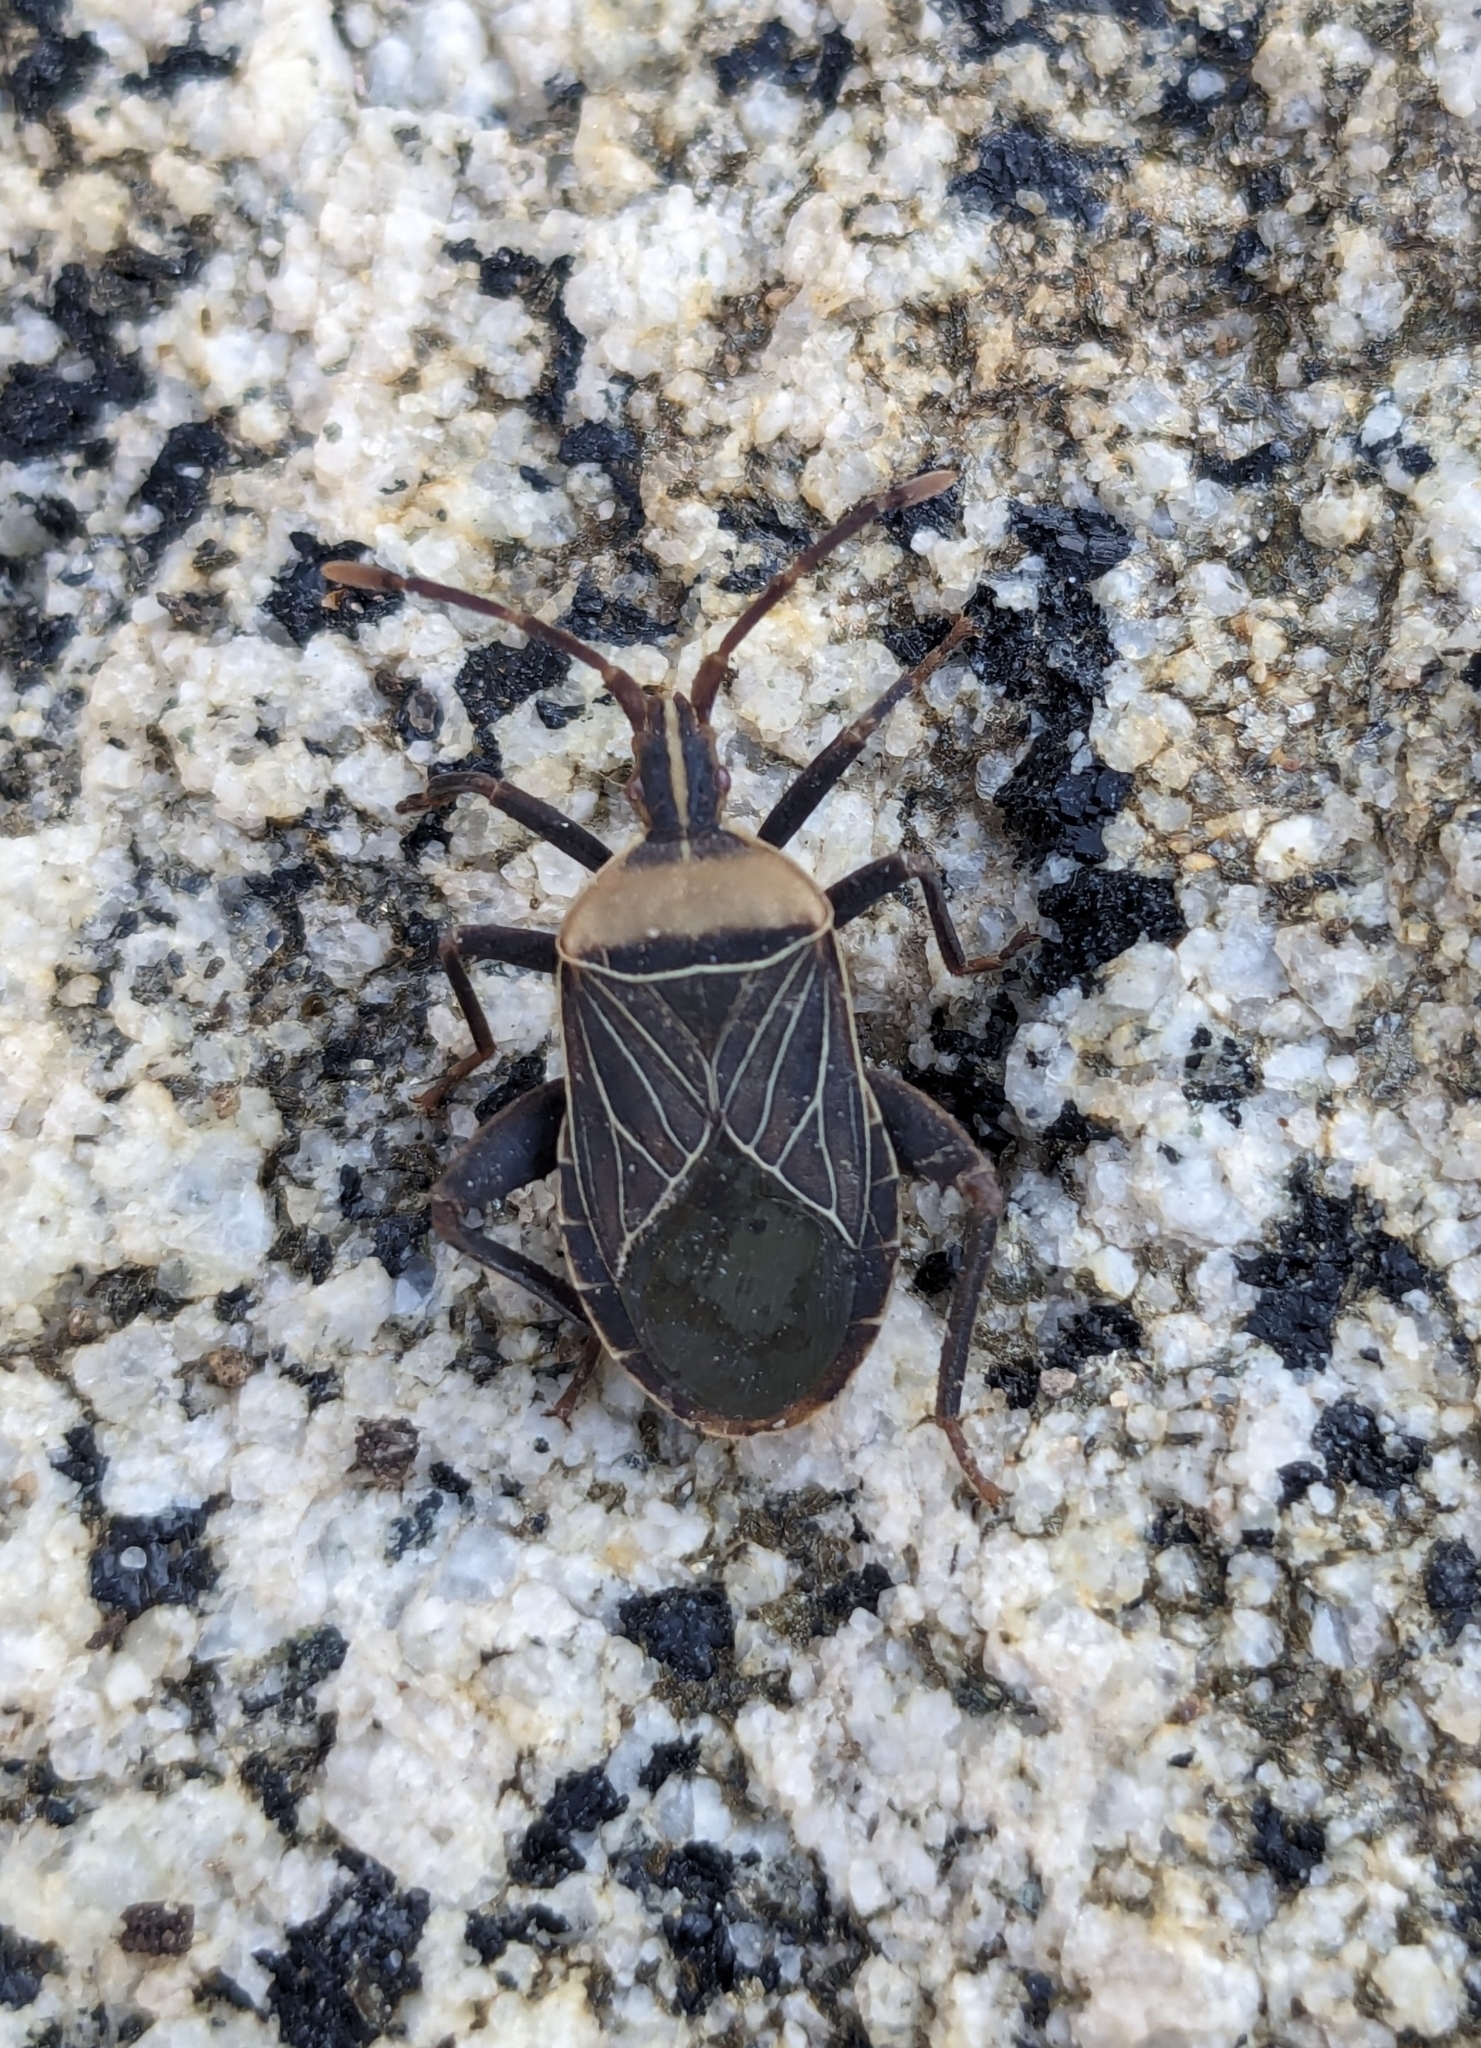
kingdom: Animalia
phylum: Arthropoda
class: Insecta
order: Hemiptera
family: Coreidae
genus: Chelinidea
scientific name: Chelinidea vittiger
